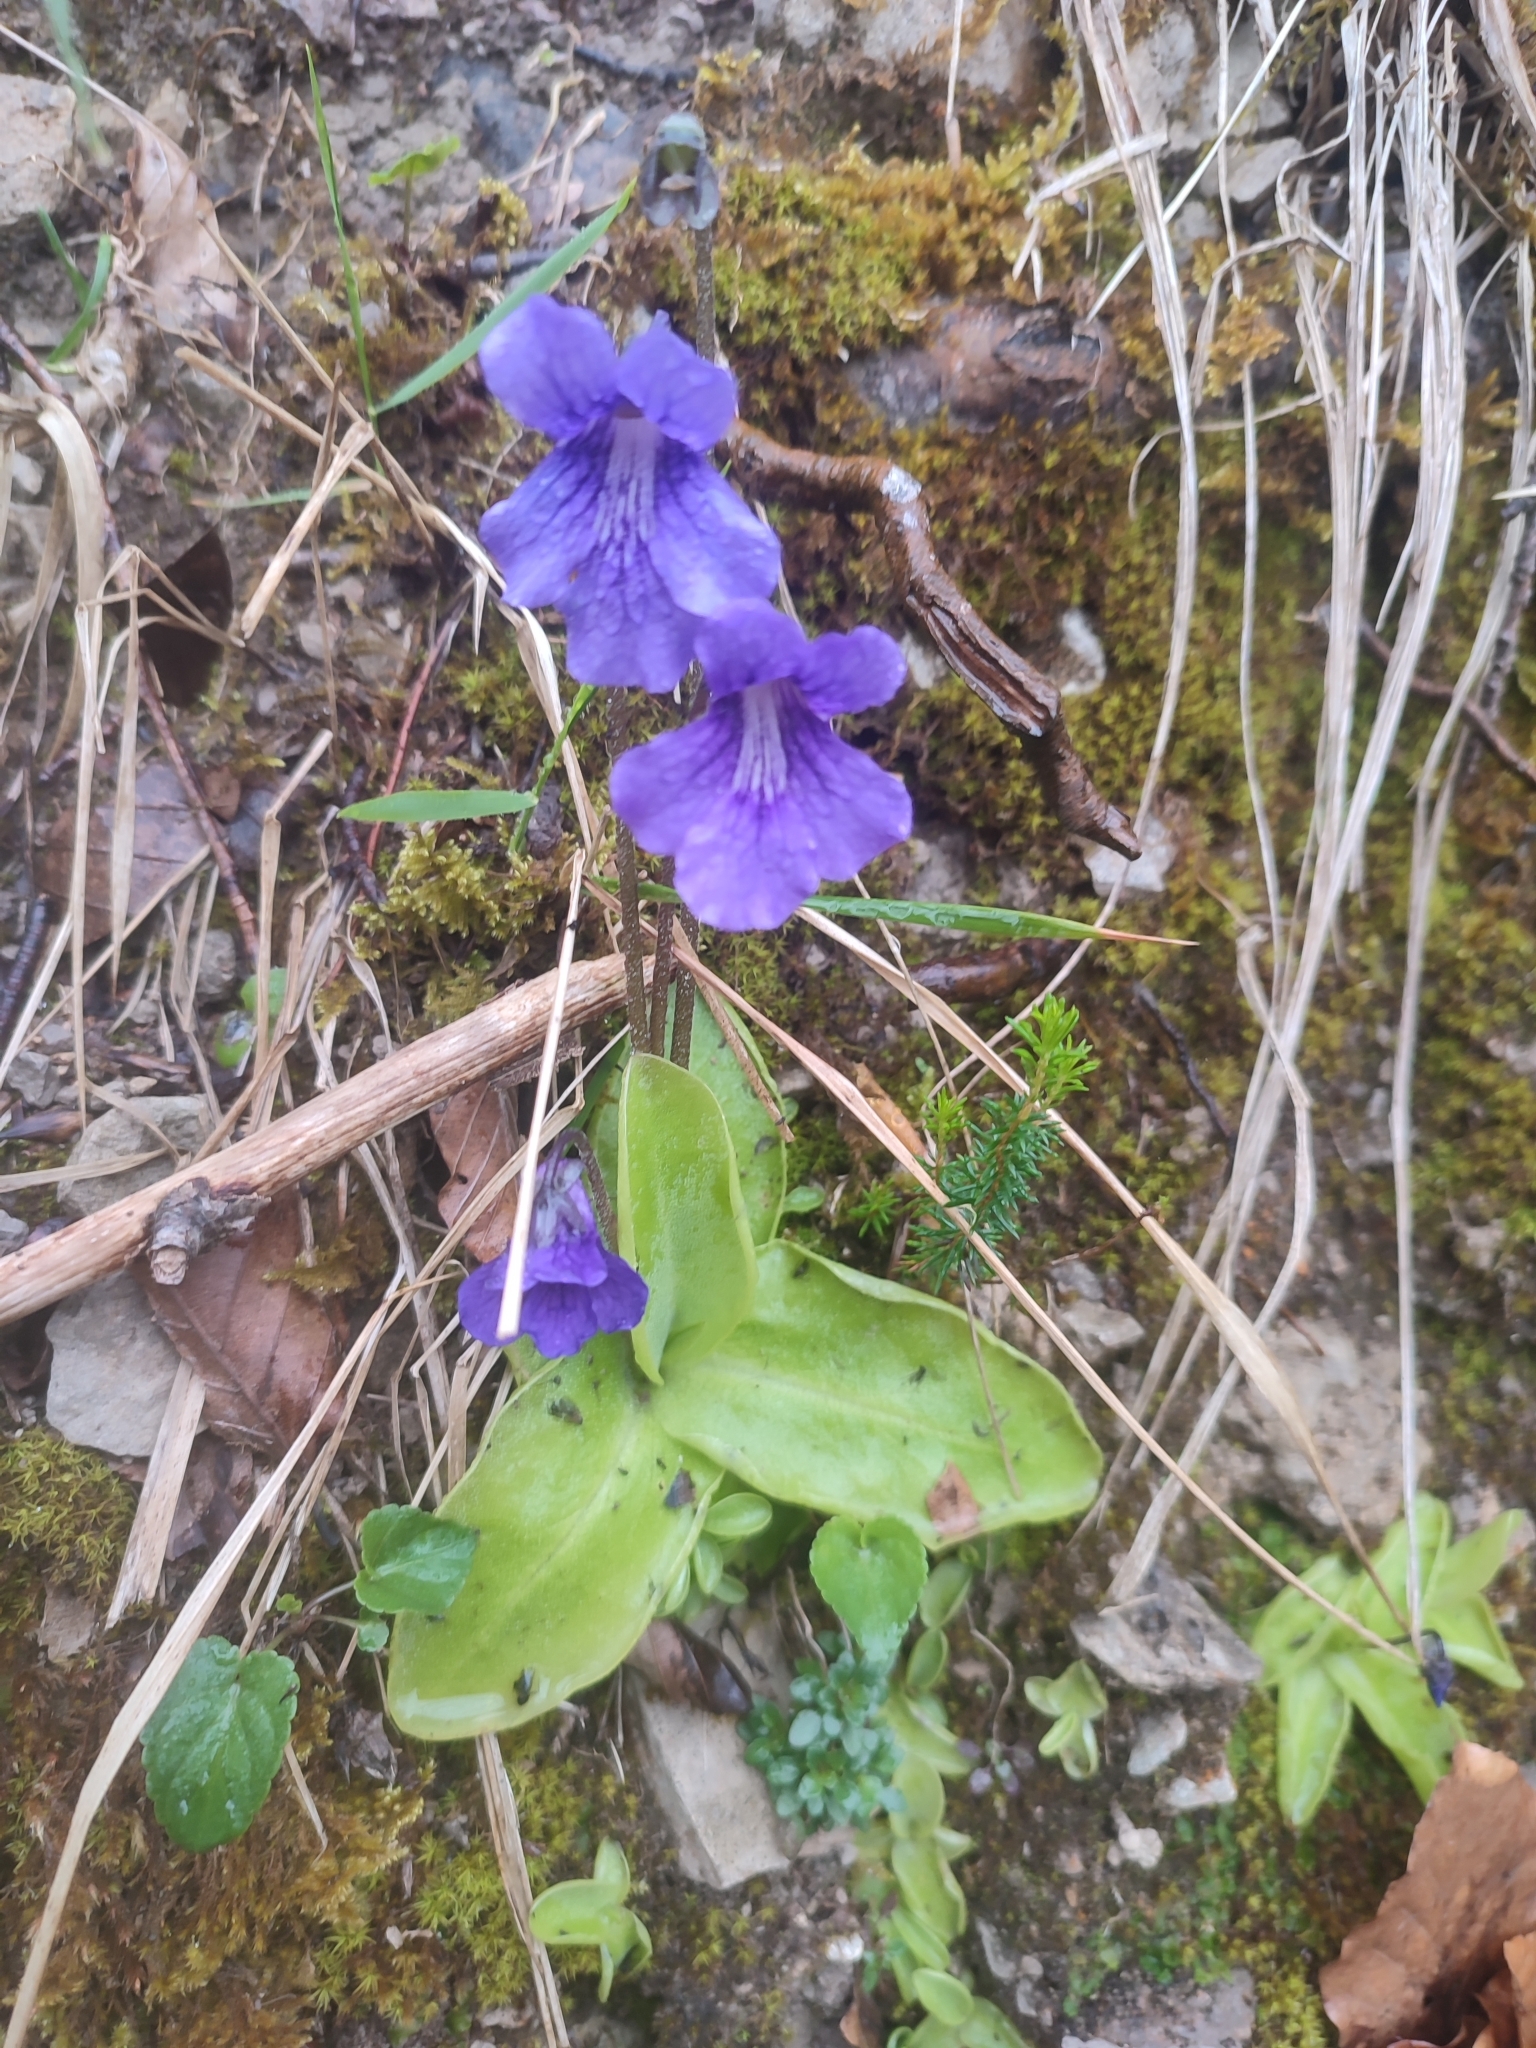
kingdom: Plantae
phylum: Tracheophyta
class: Magnoliopsida
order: Lamiales
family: Lentibulariaceae
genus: Pinguicula
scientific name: Pinguicula grandiflora
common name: Large-flowered butterwort
